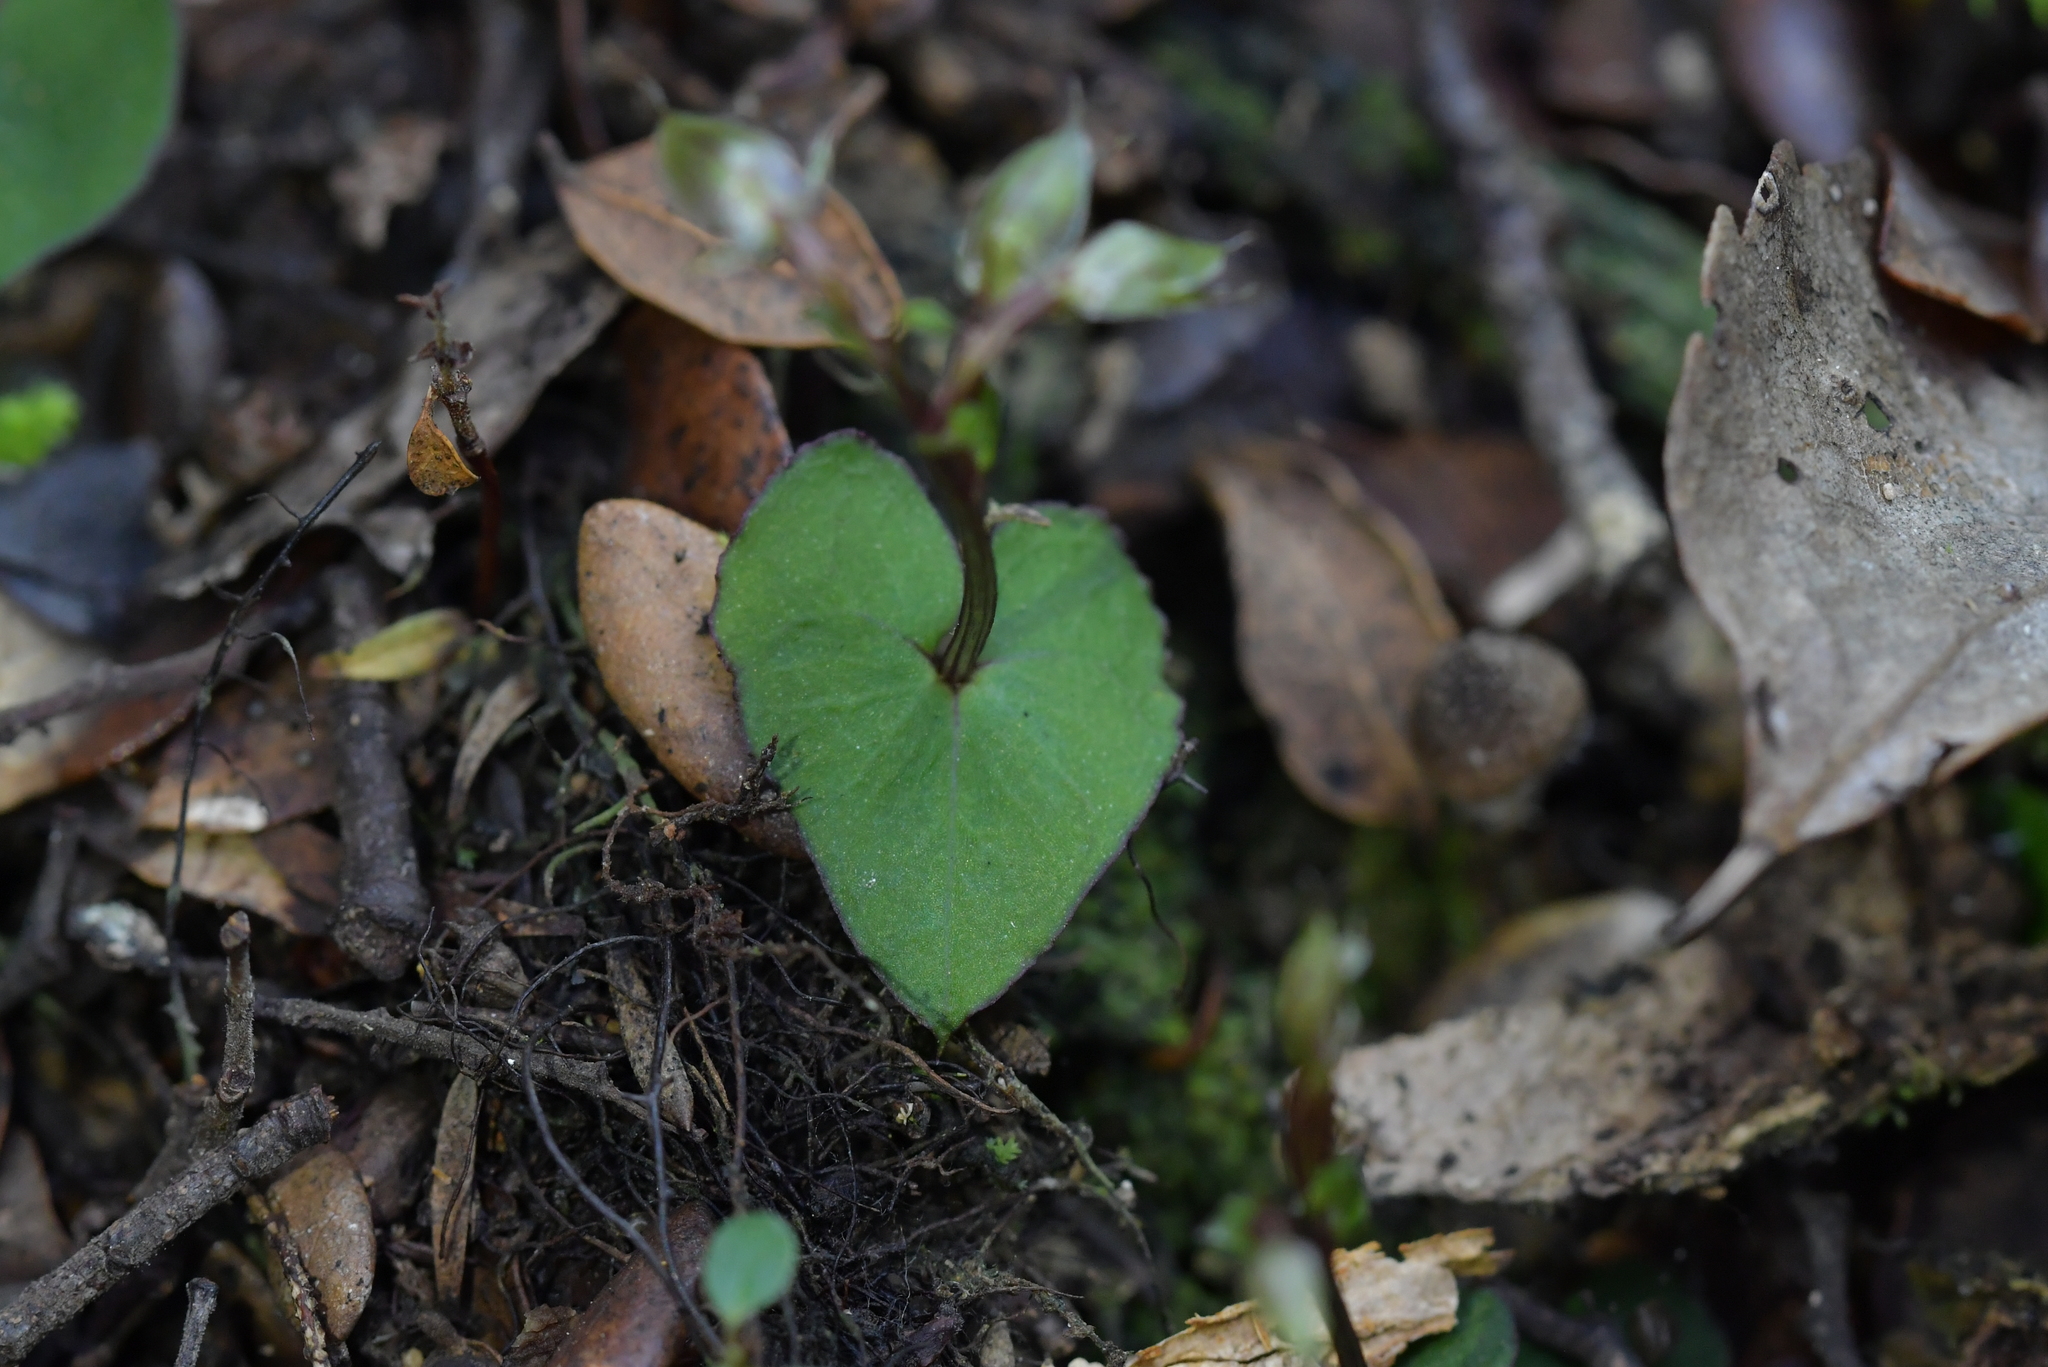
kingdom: Plantae
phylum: Tracheophyta
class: Liliopsida
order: Asparagales
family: Orchidaceae
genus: Acianthus
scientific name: Acianthus sinclairii
